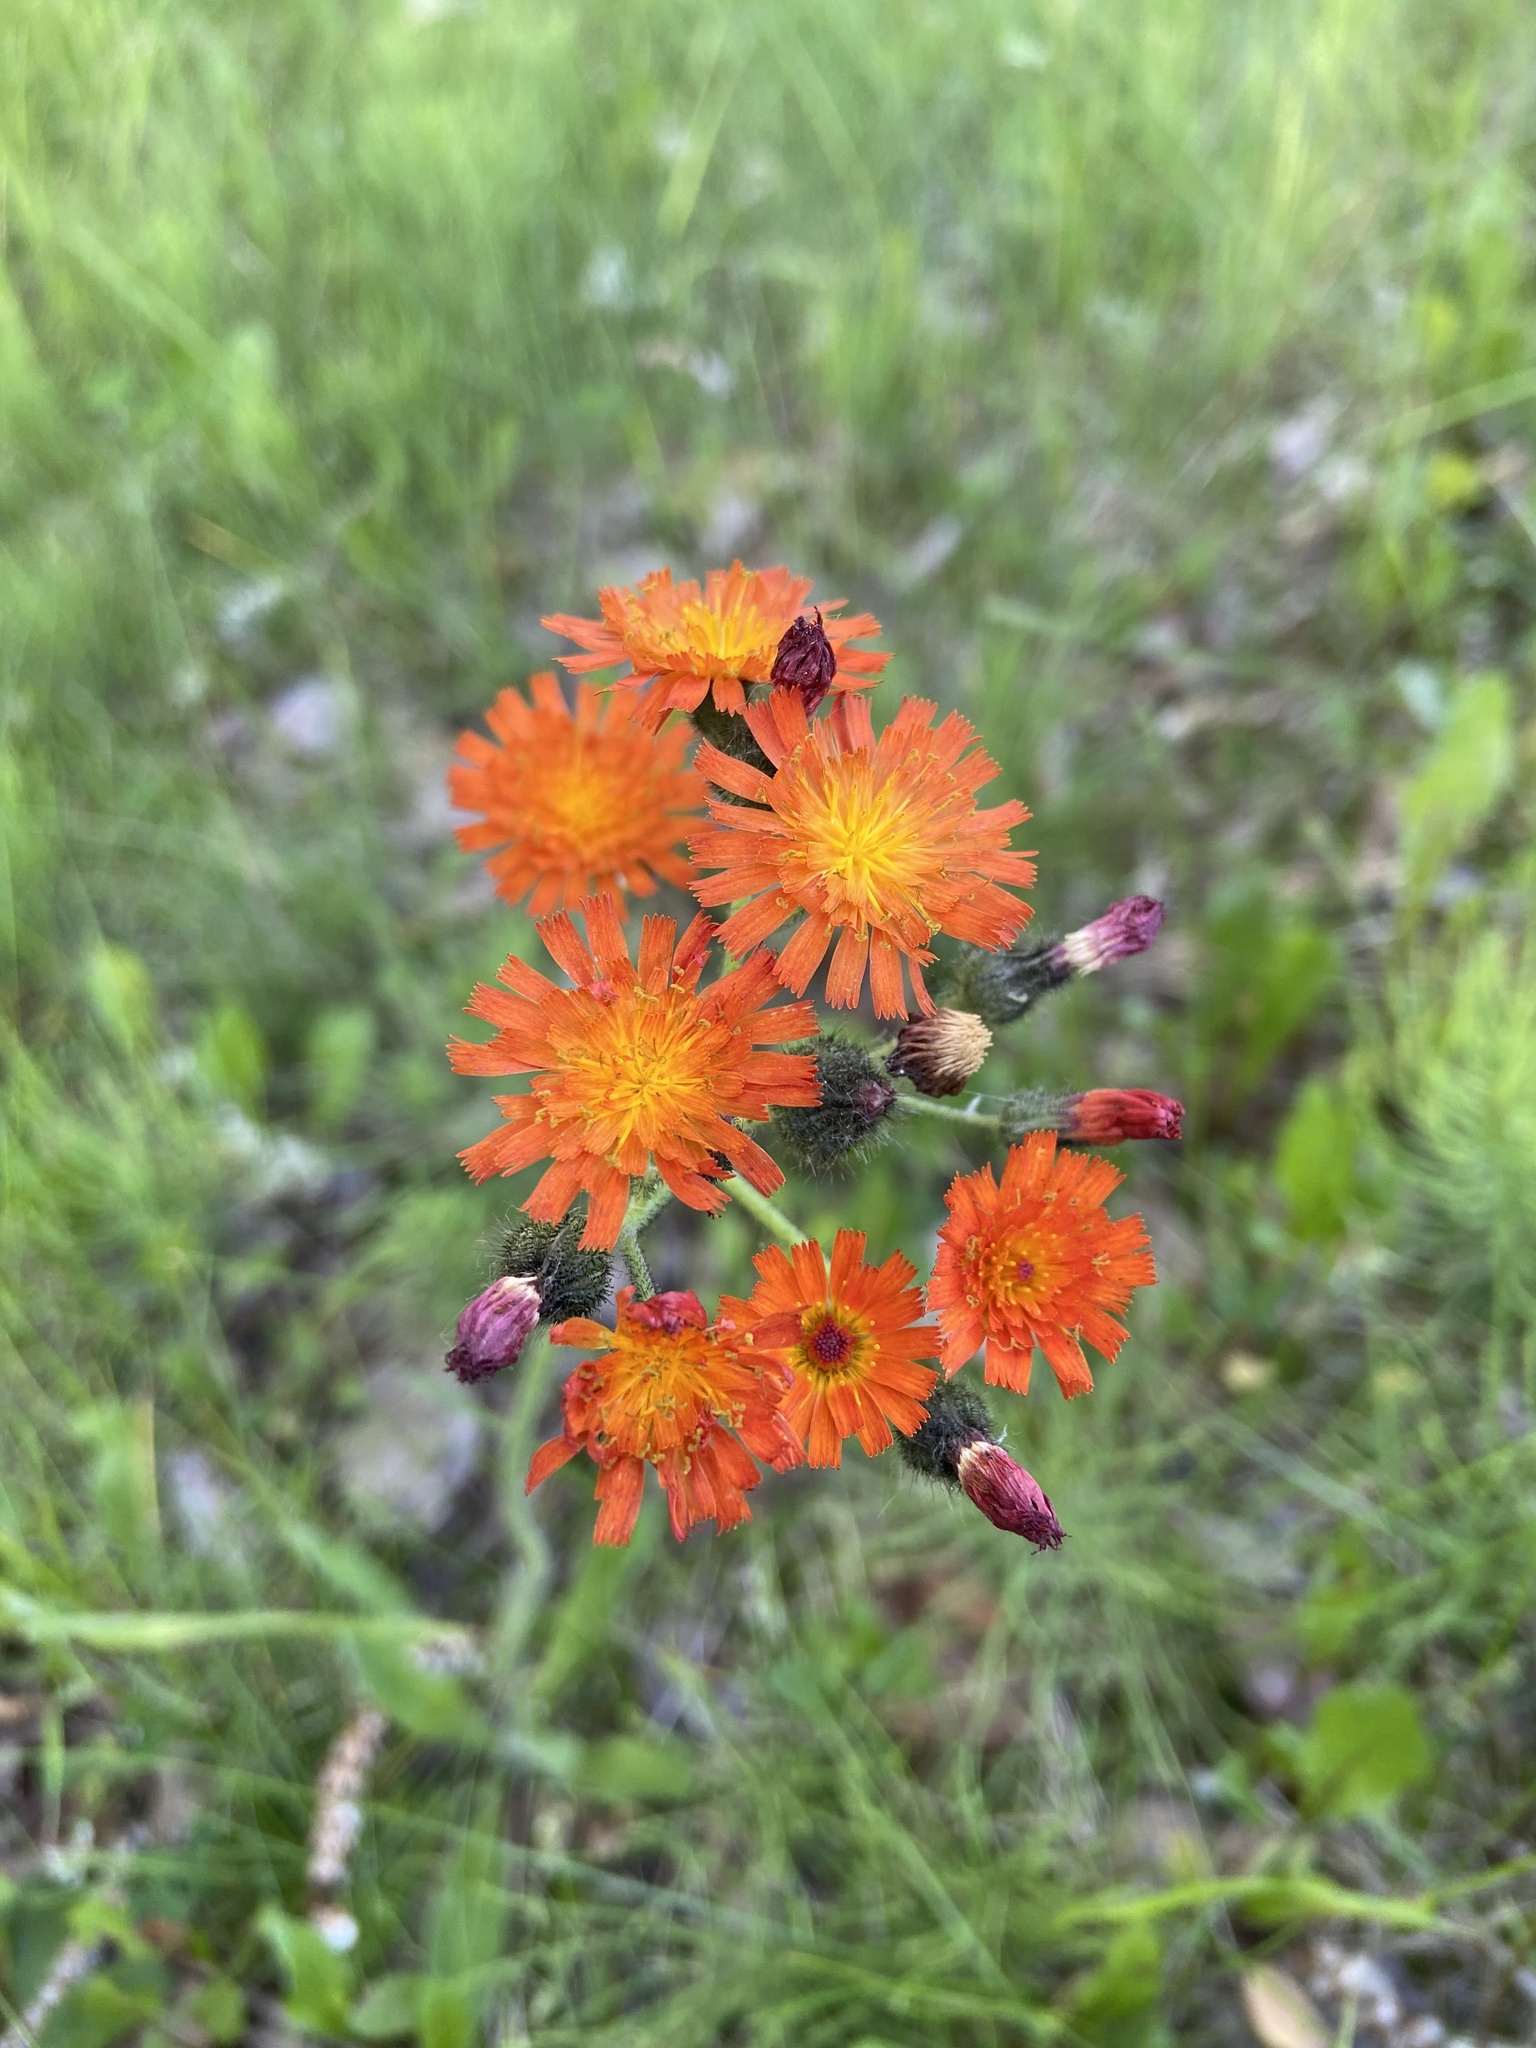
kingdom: Plantae
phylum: Tracheophyta
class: Magnoliopsida
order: Asterales
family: Asteraceae
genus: Pilosella
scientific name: Pilosella aurantiaca
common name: Fox-and-cubs
